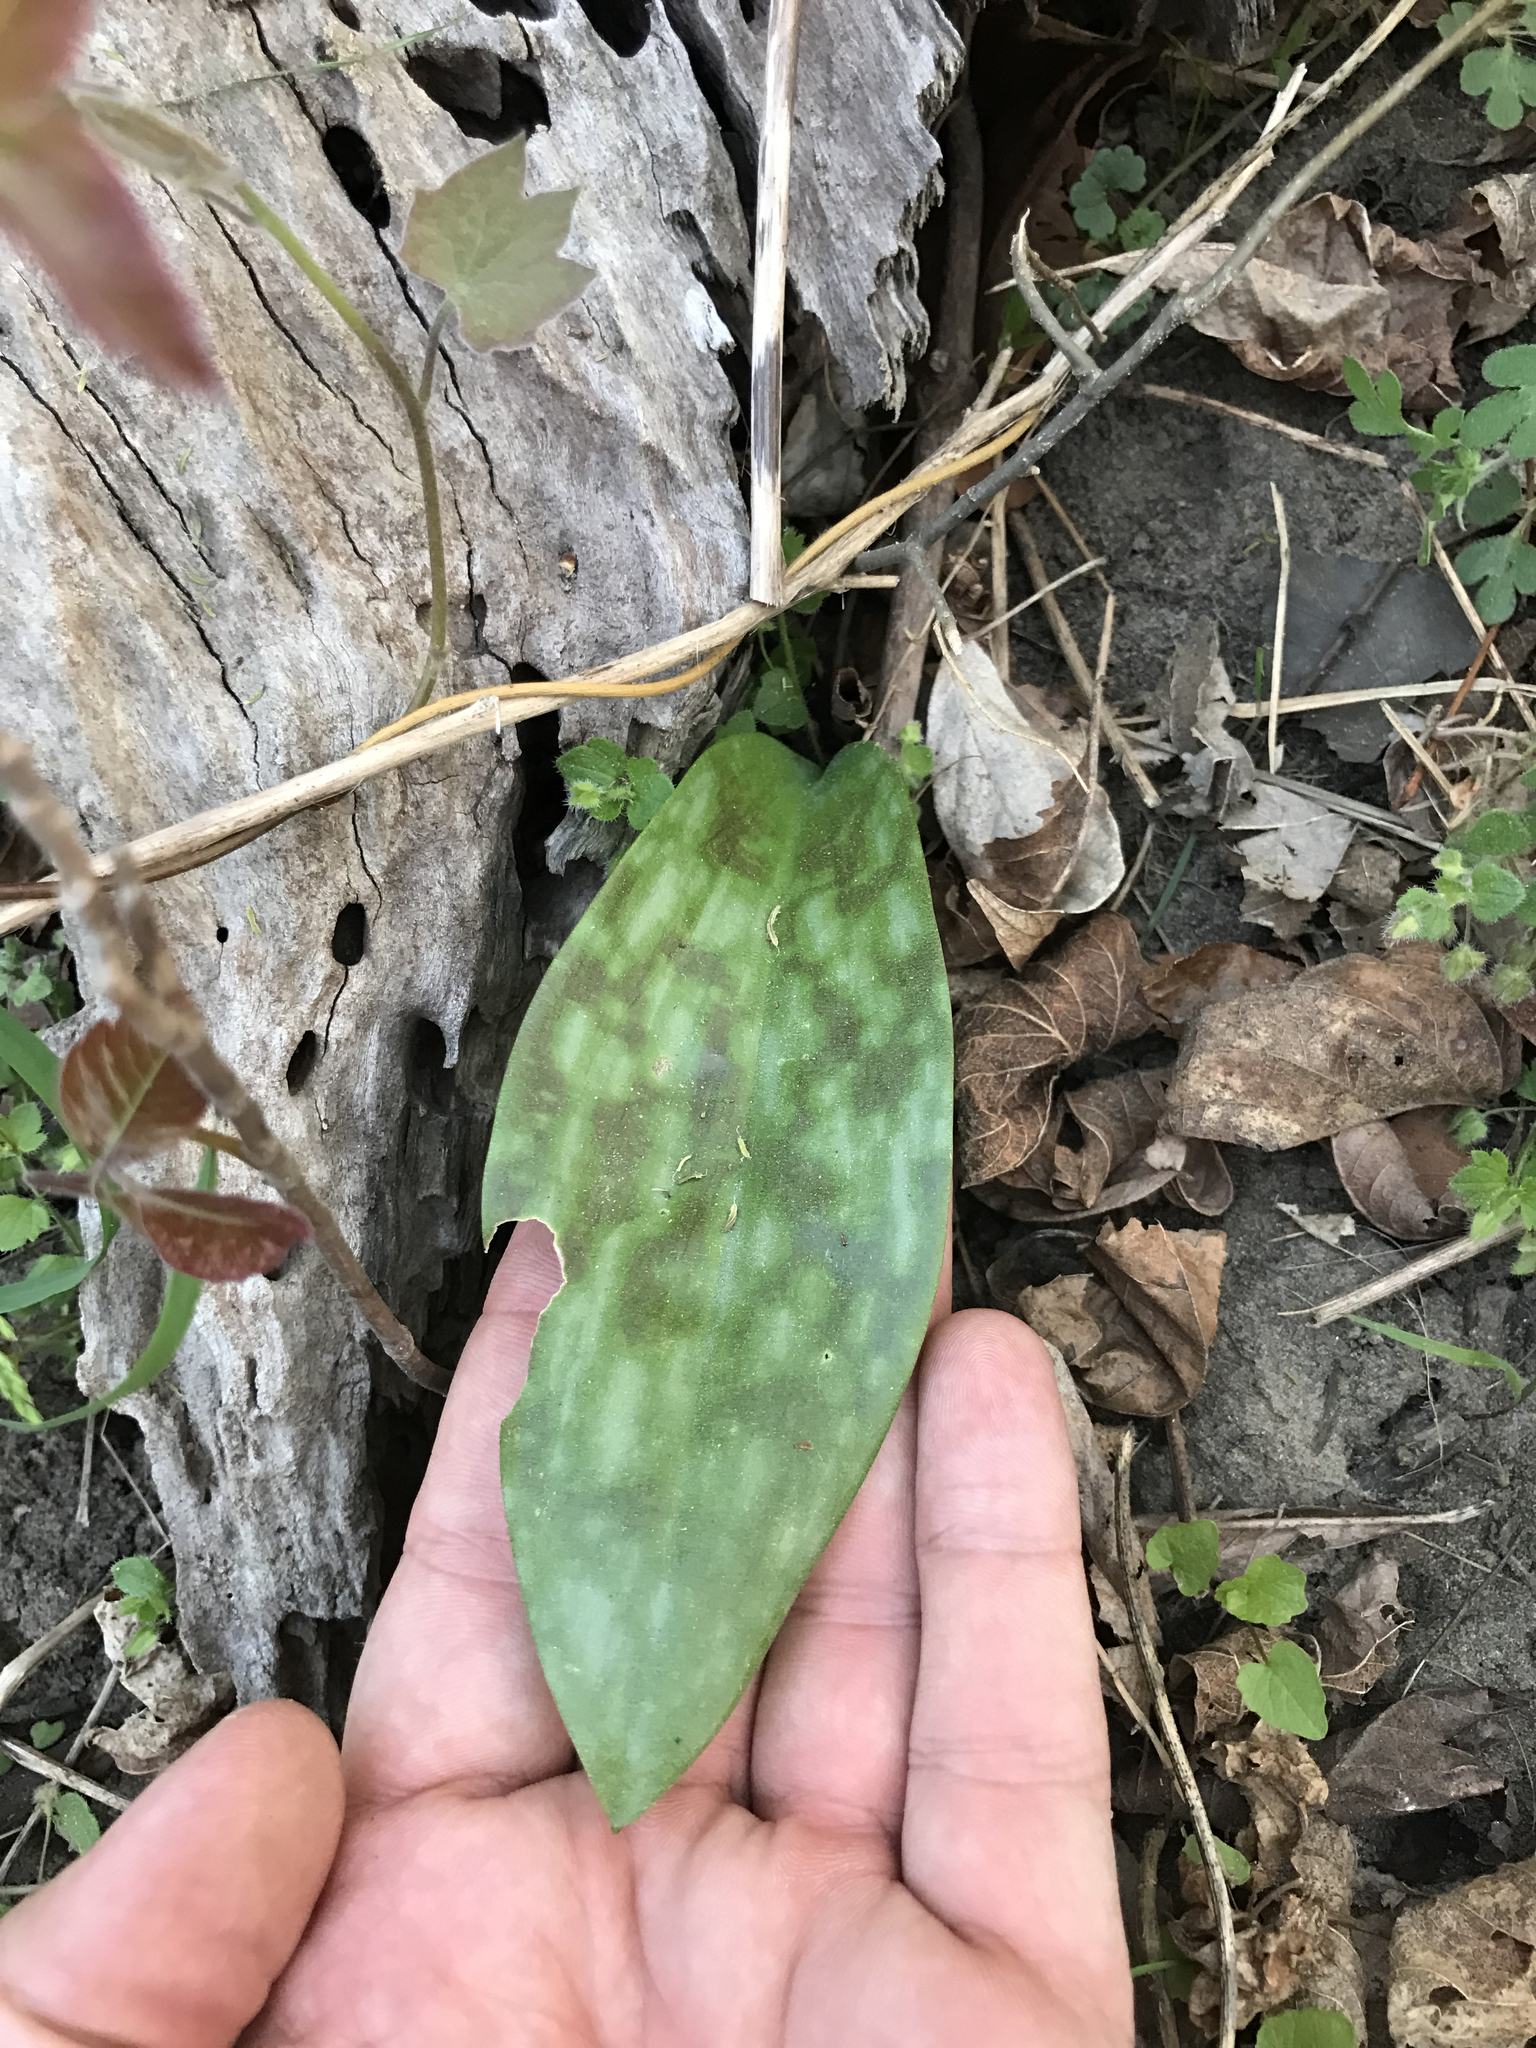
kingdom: Plantae
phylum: Tracheophyta
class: Liliopsida
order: Liliales
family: Liliaceae
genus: Erythronium
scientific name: Erythronium americanum
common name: Yellow adder's-tongue
